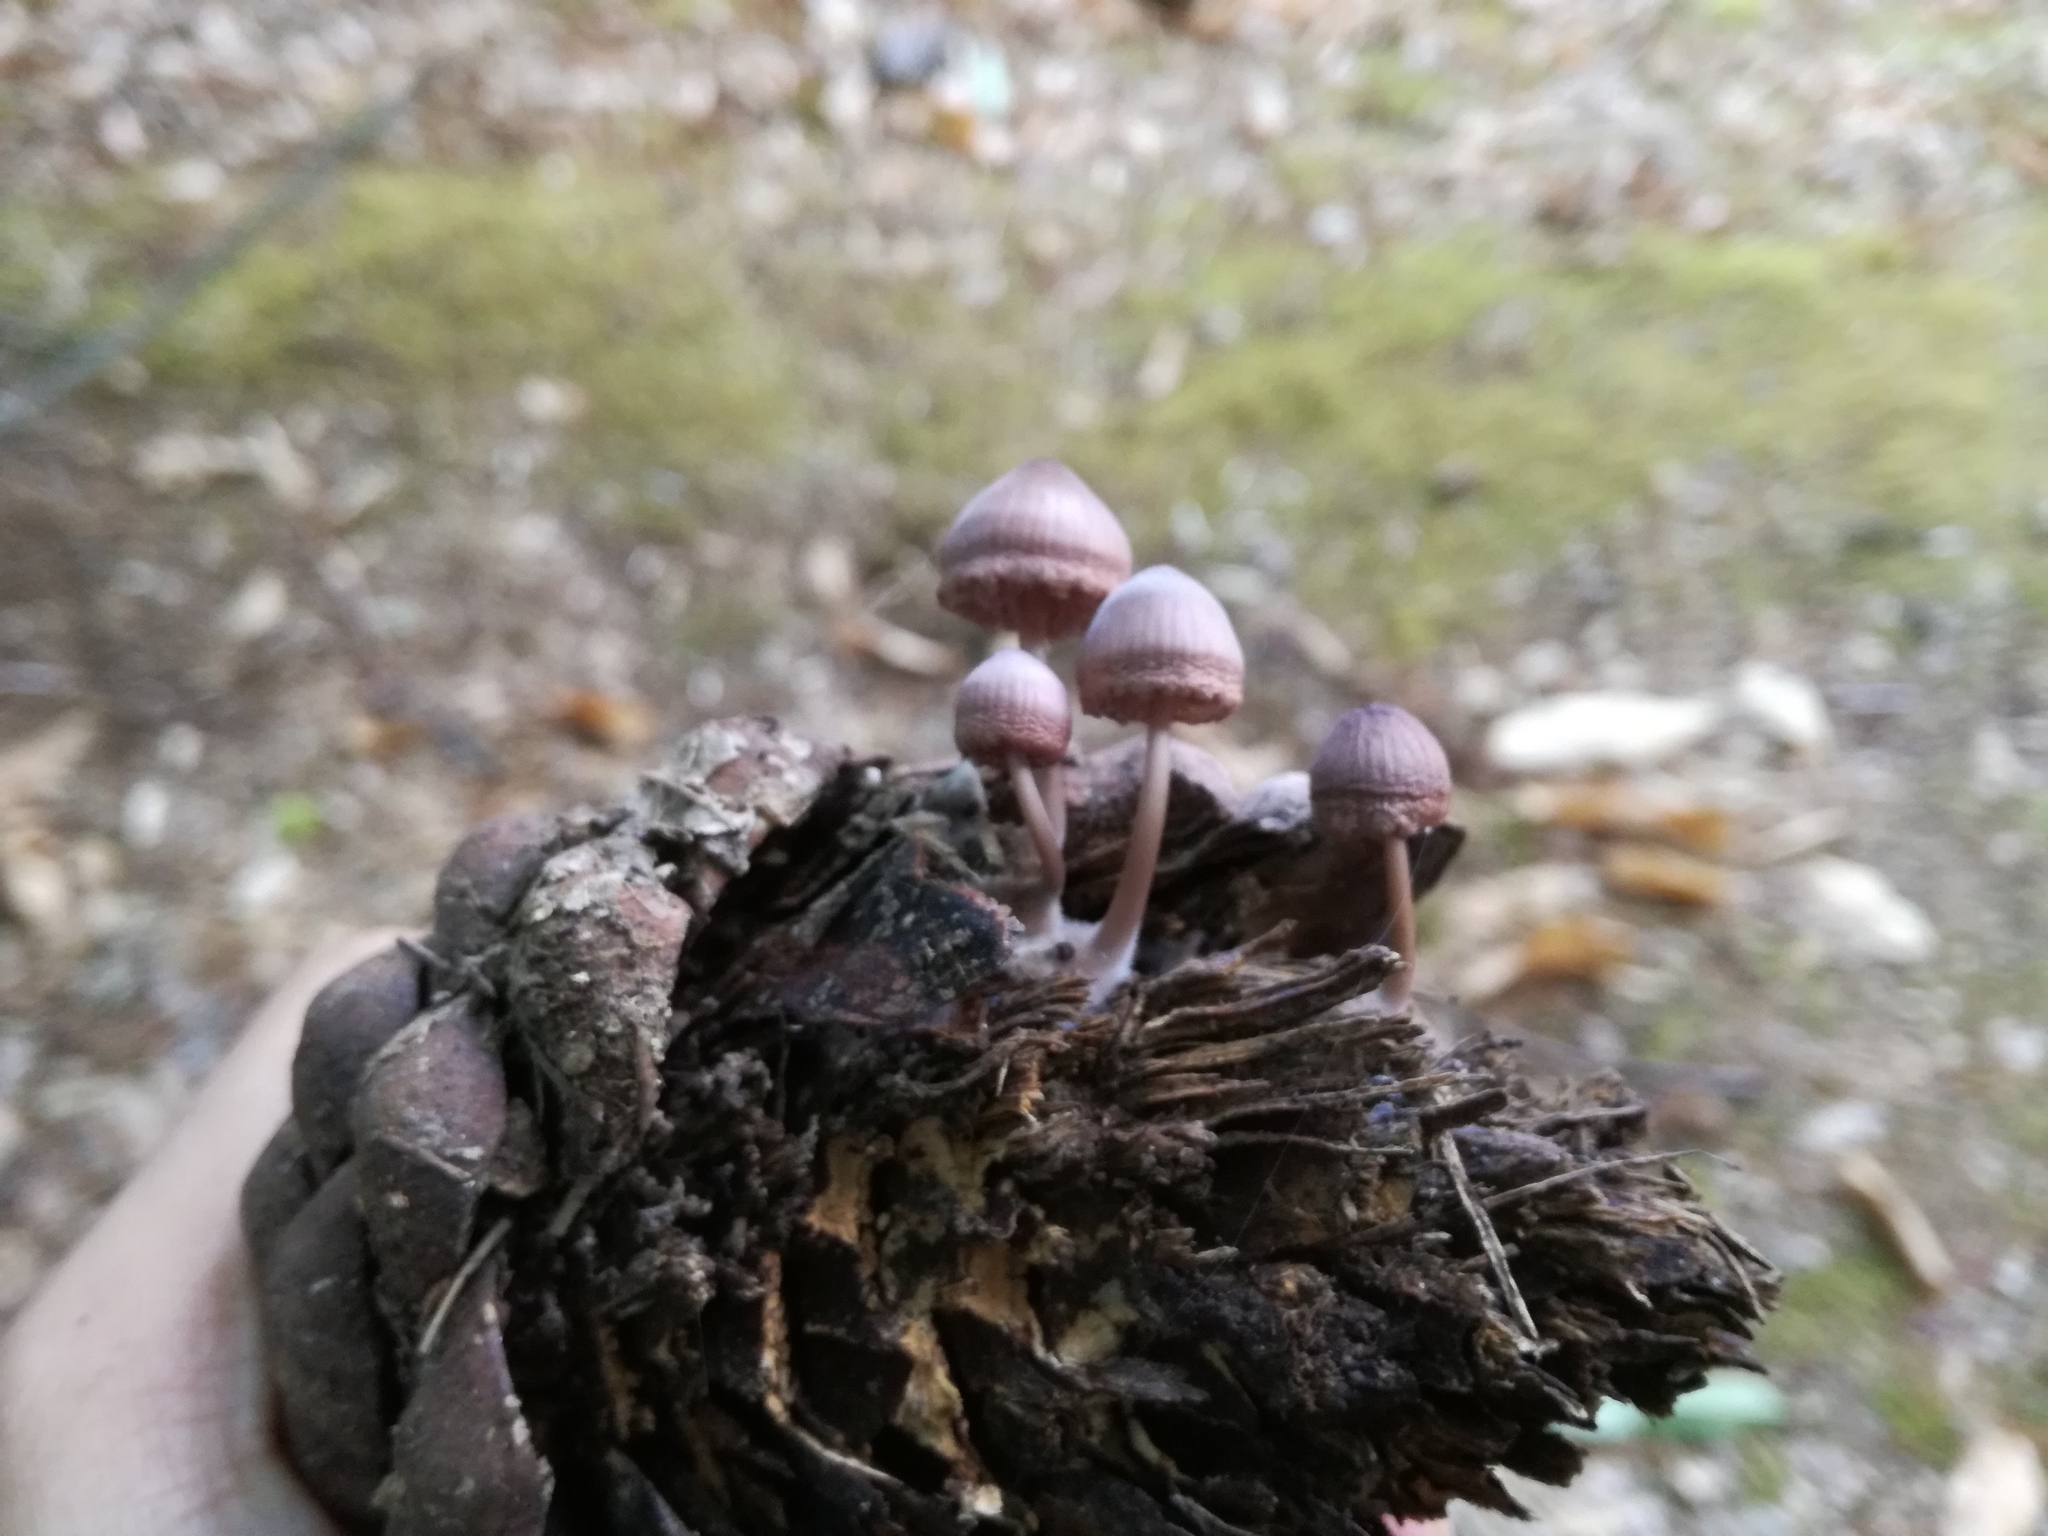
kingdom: Fungi
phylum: Basidiomycota
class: Agaricomycetes
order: Agaricales
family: Mycenaceae
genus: Mycena
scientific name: Mycena seynii
